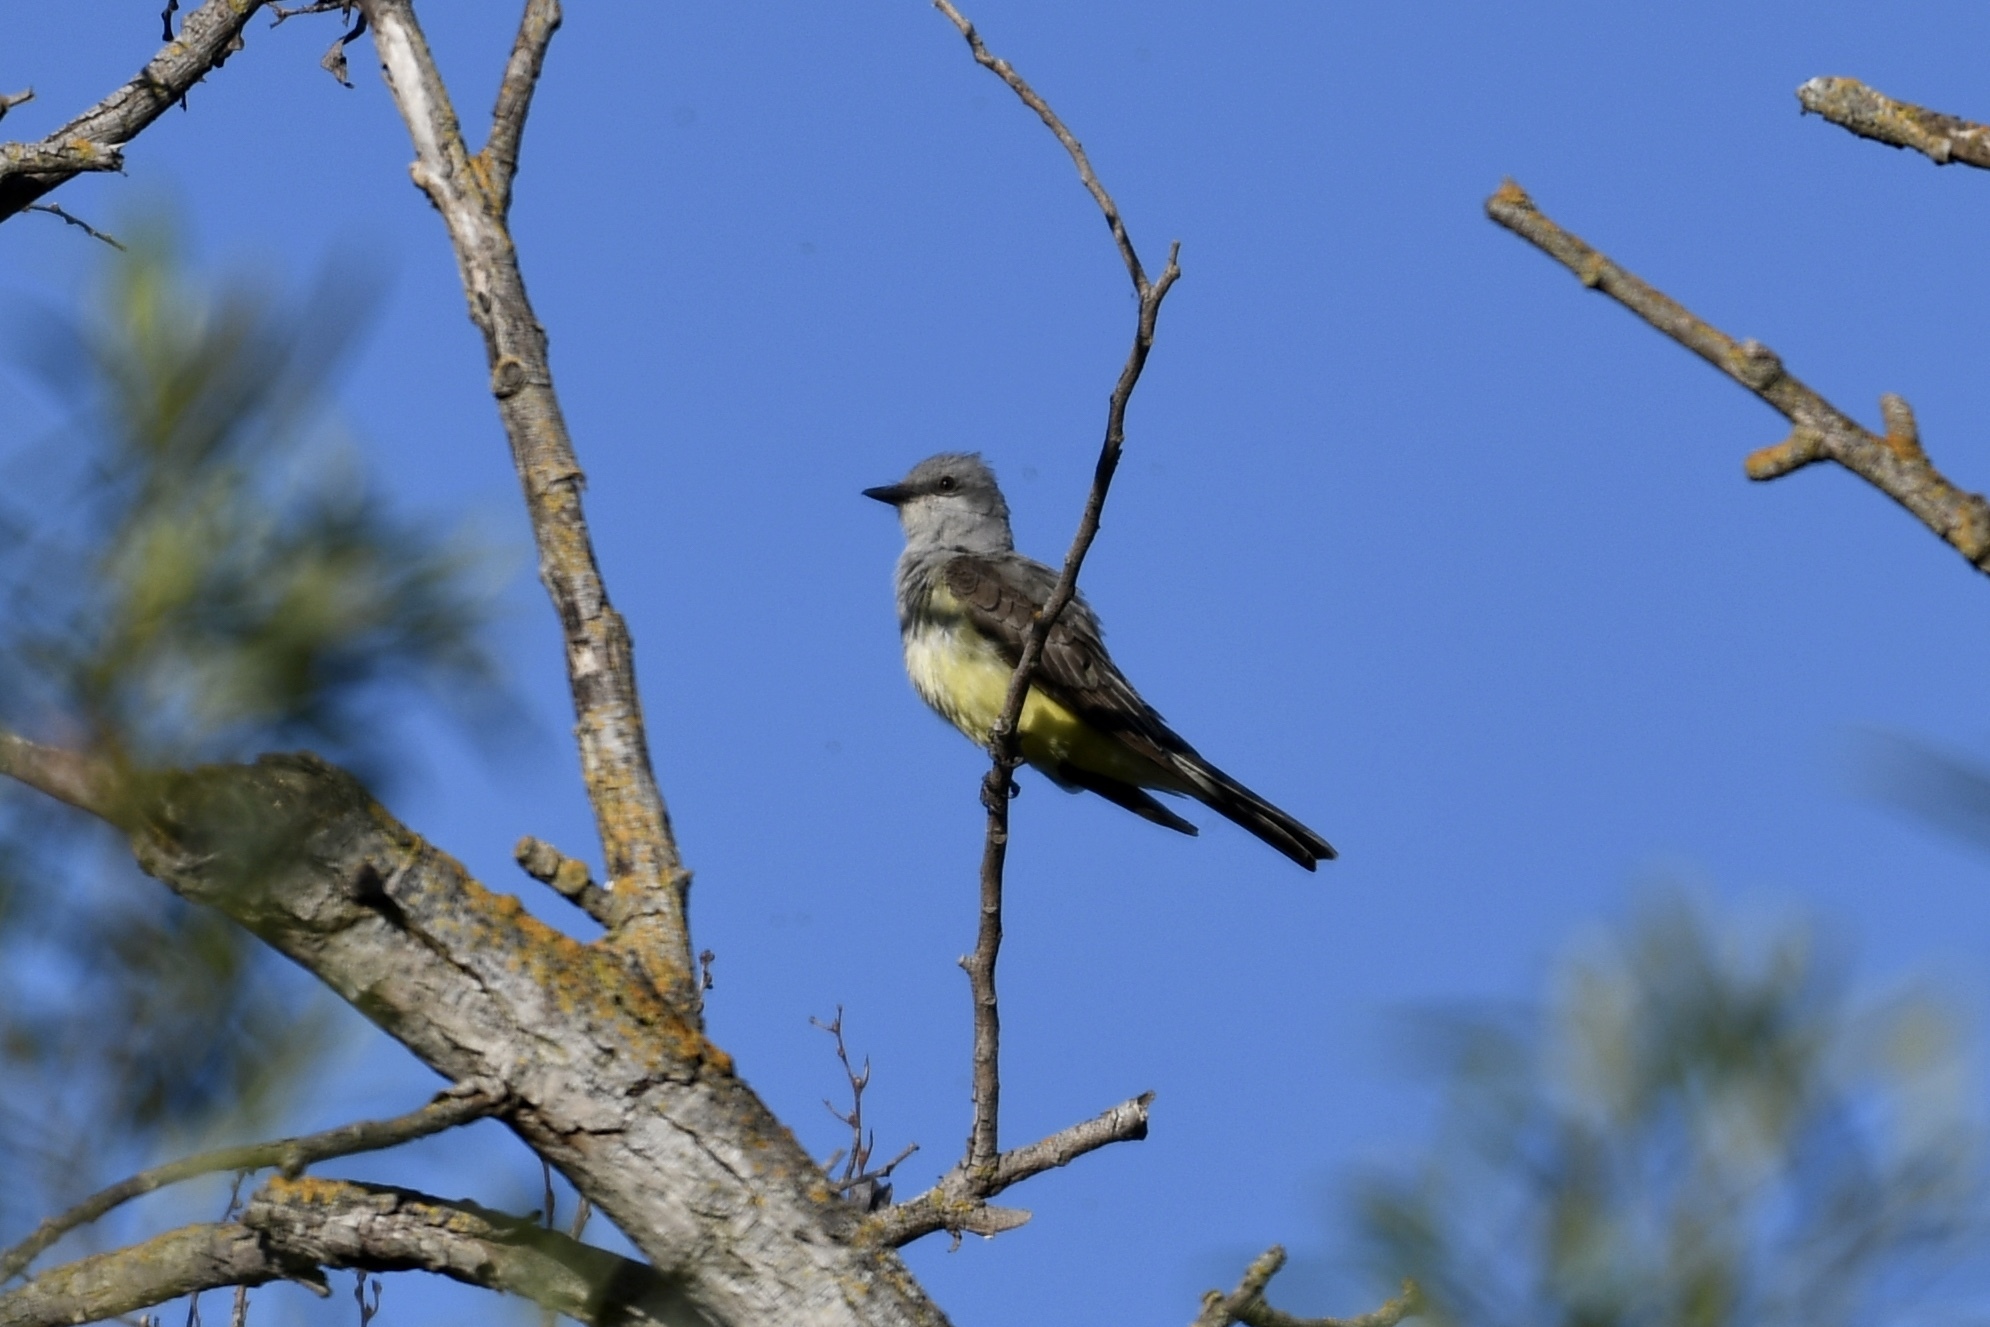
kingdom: Animalia
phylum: Chordata
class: Aves
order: Passeriformes
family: Tyrannidae
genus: Tyrannus
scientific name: Tyrannus verticalis
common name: Western kingbird
